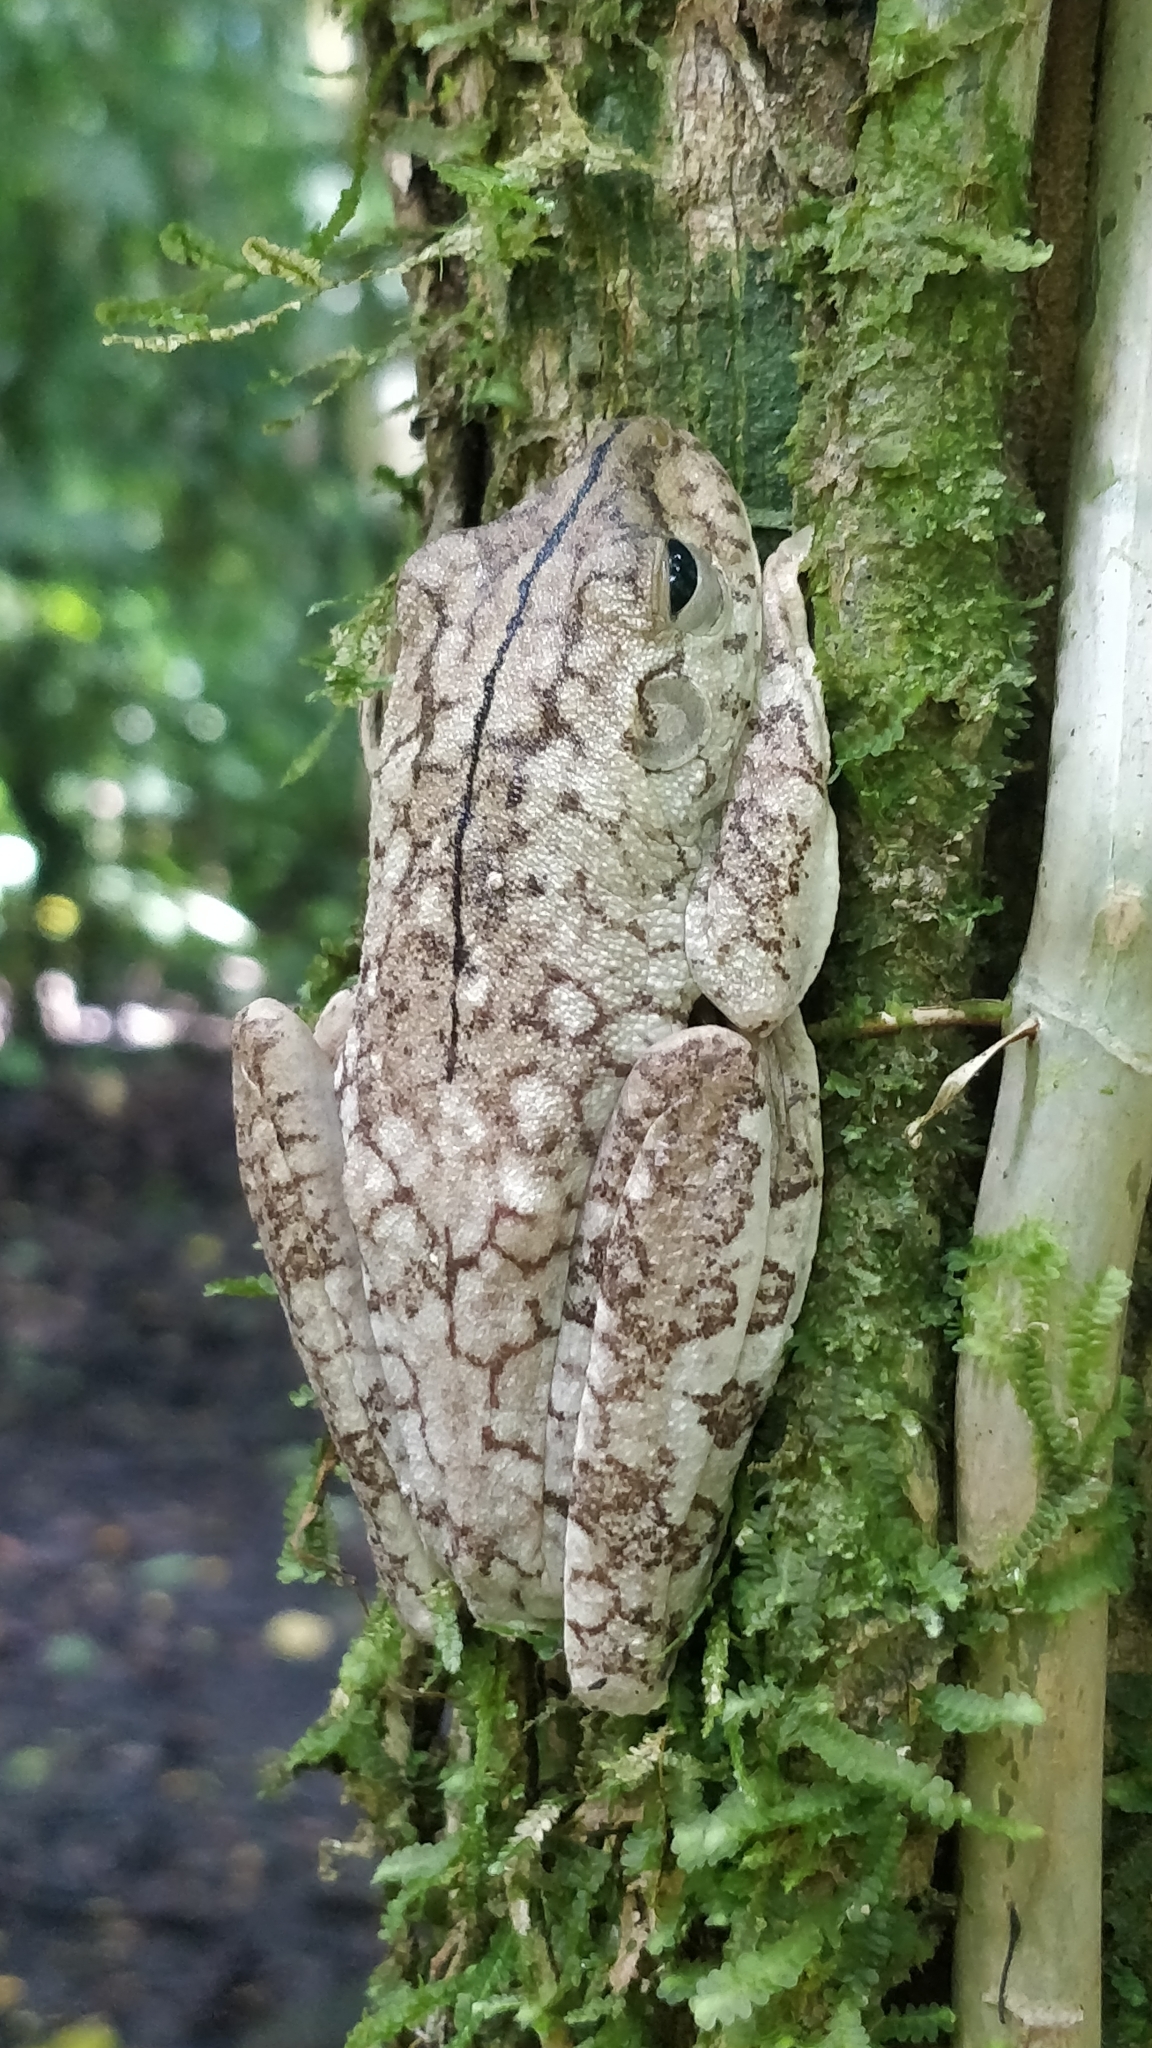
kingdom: Animalia
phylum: Chordata
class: Amphibia
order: Anura
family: Hylidae
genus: Boana
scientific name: Boana rosenbergi
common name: Rosenberg´s gladiator treefrog
